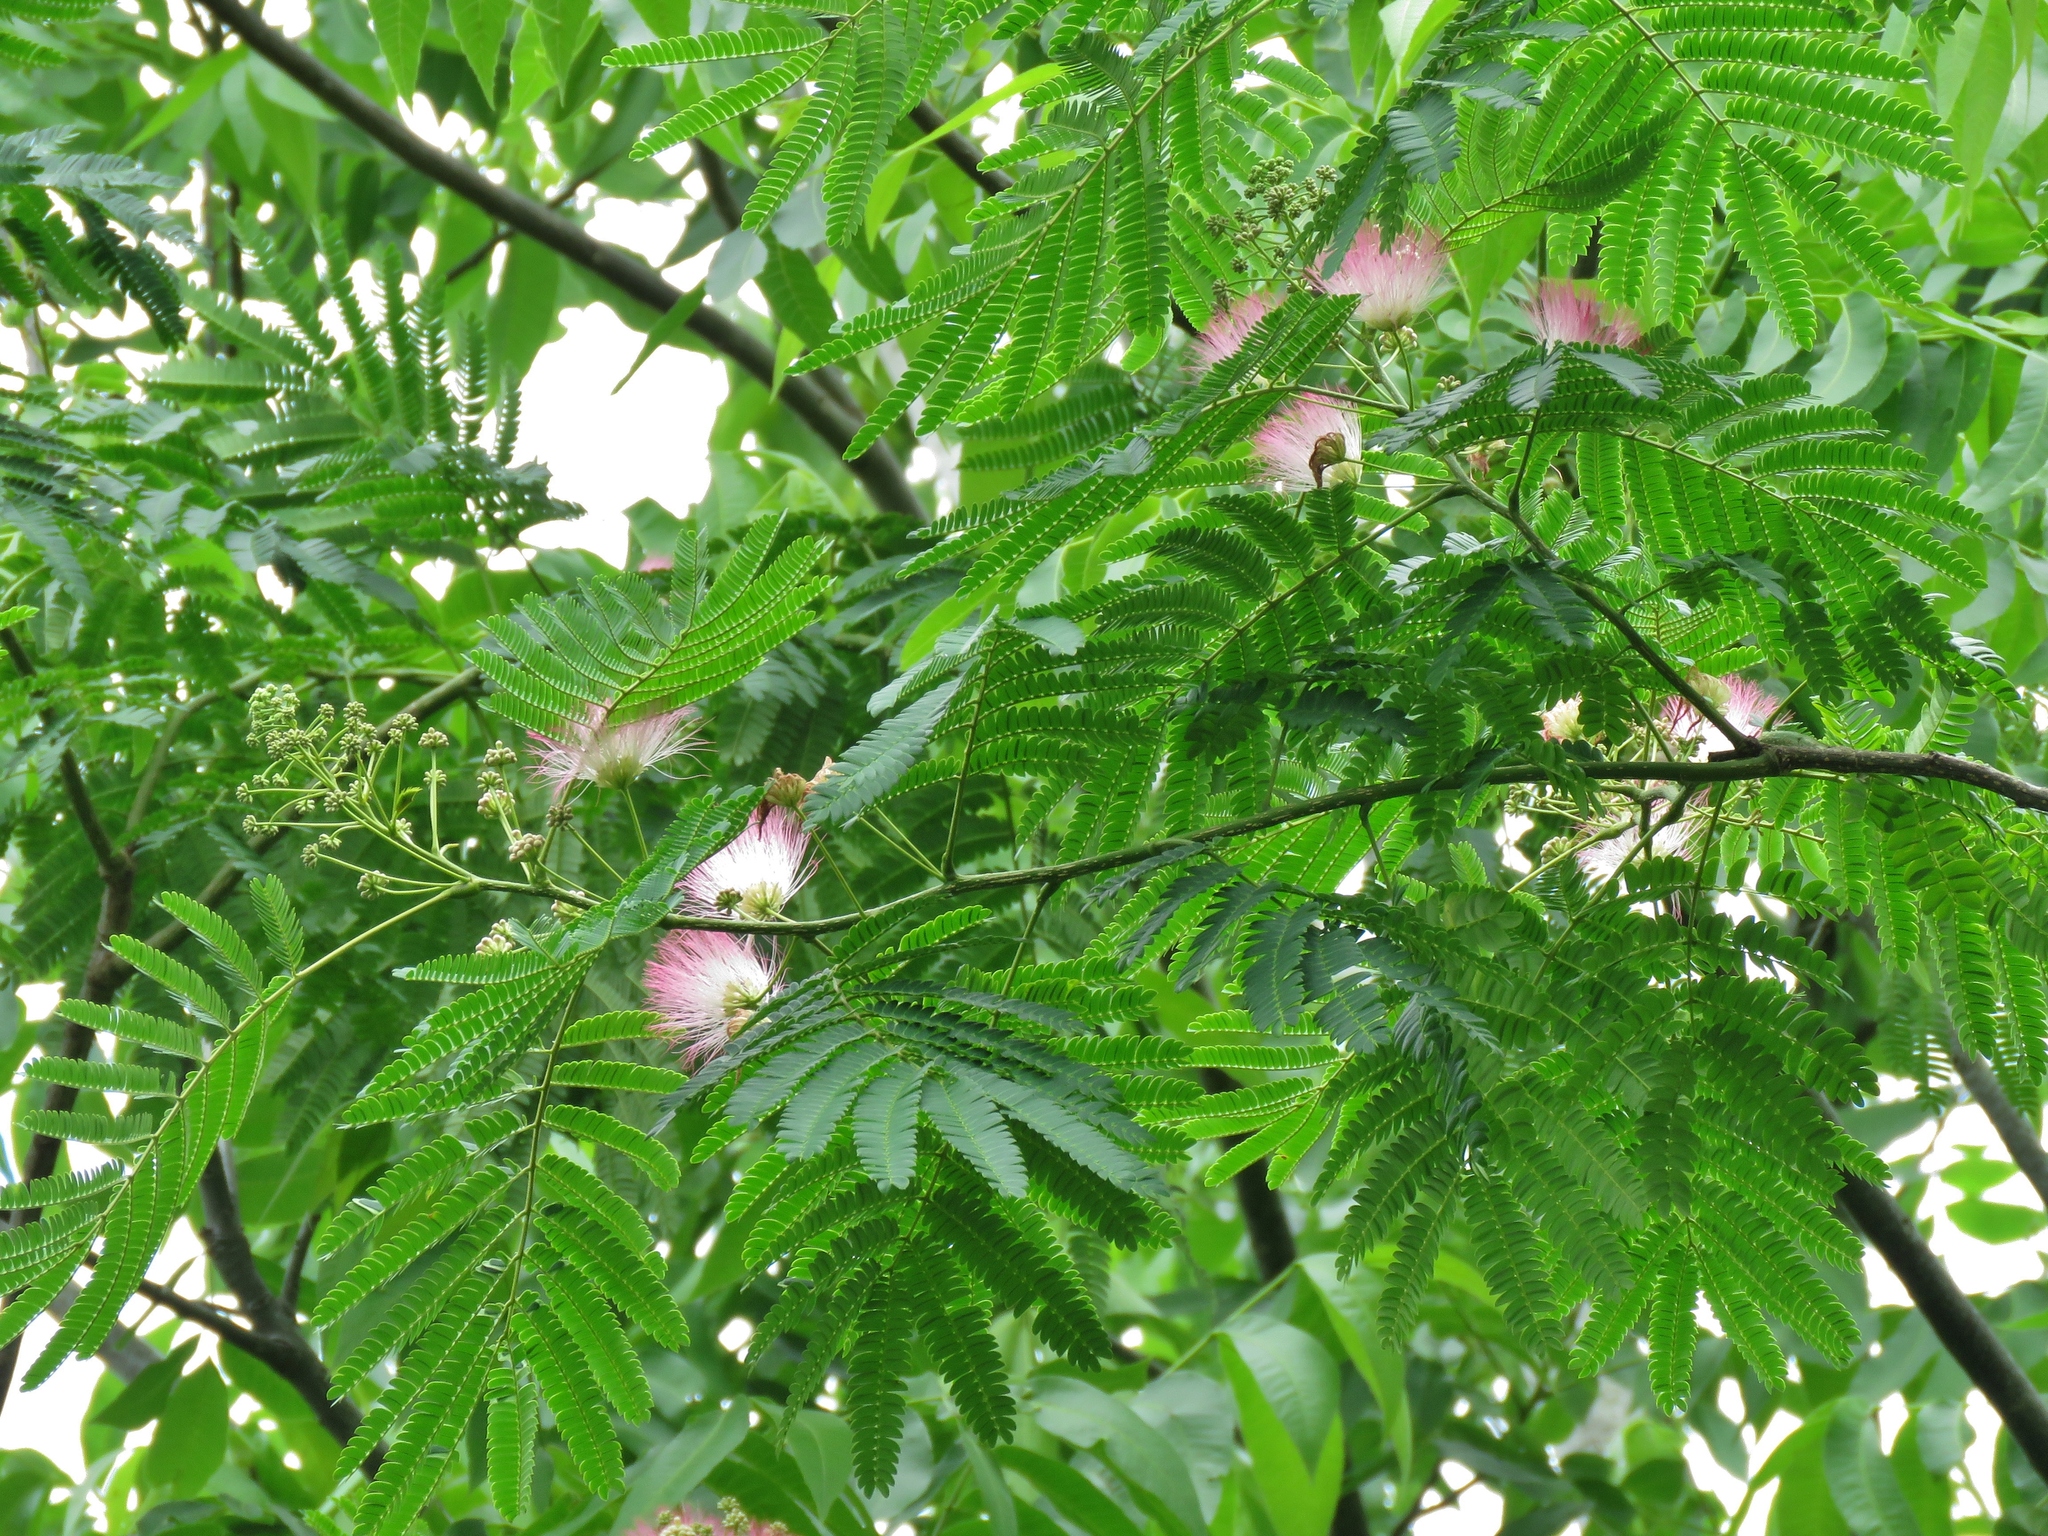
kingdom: Plantae
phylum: Tracheophyta
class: Magnoliopsida
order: Fabales
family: Fabaceae
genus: Albizia
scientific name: Albizia julibrissin
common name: Silktree
